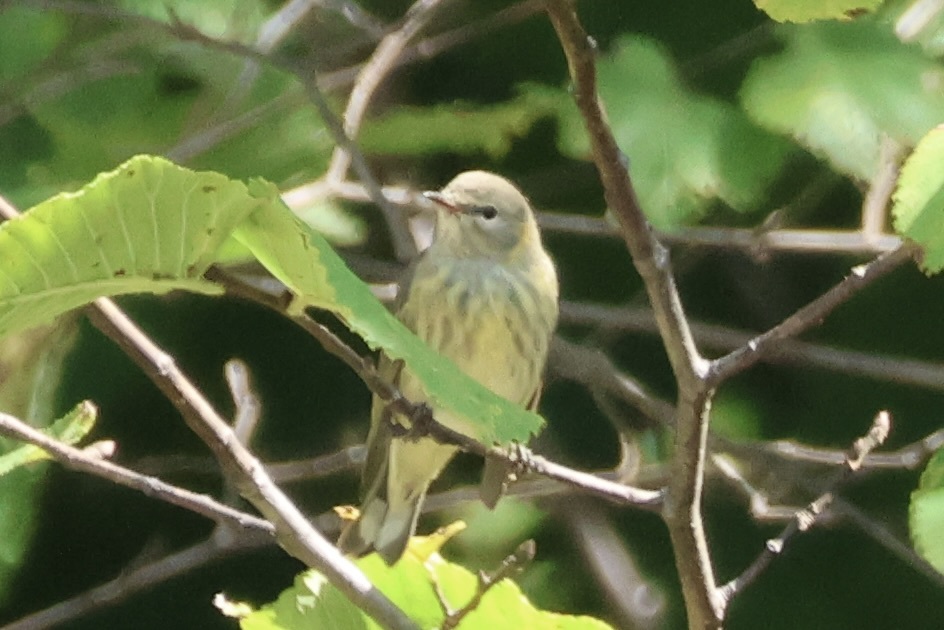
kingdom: Animalia
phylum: Chordata
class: Aves
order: Passeriformes
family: Parulidae
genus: Setophaga
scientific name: Setophaga tigrina
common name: Cape may warbler
